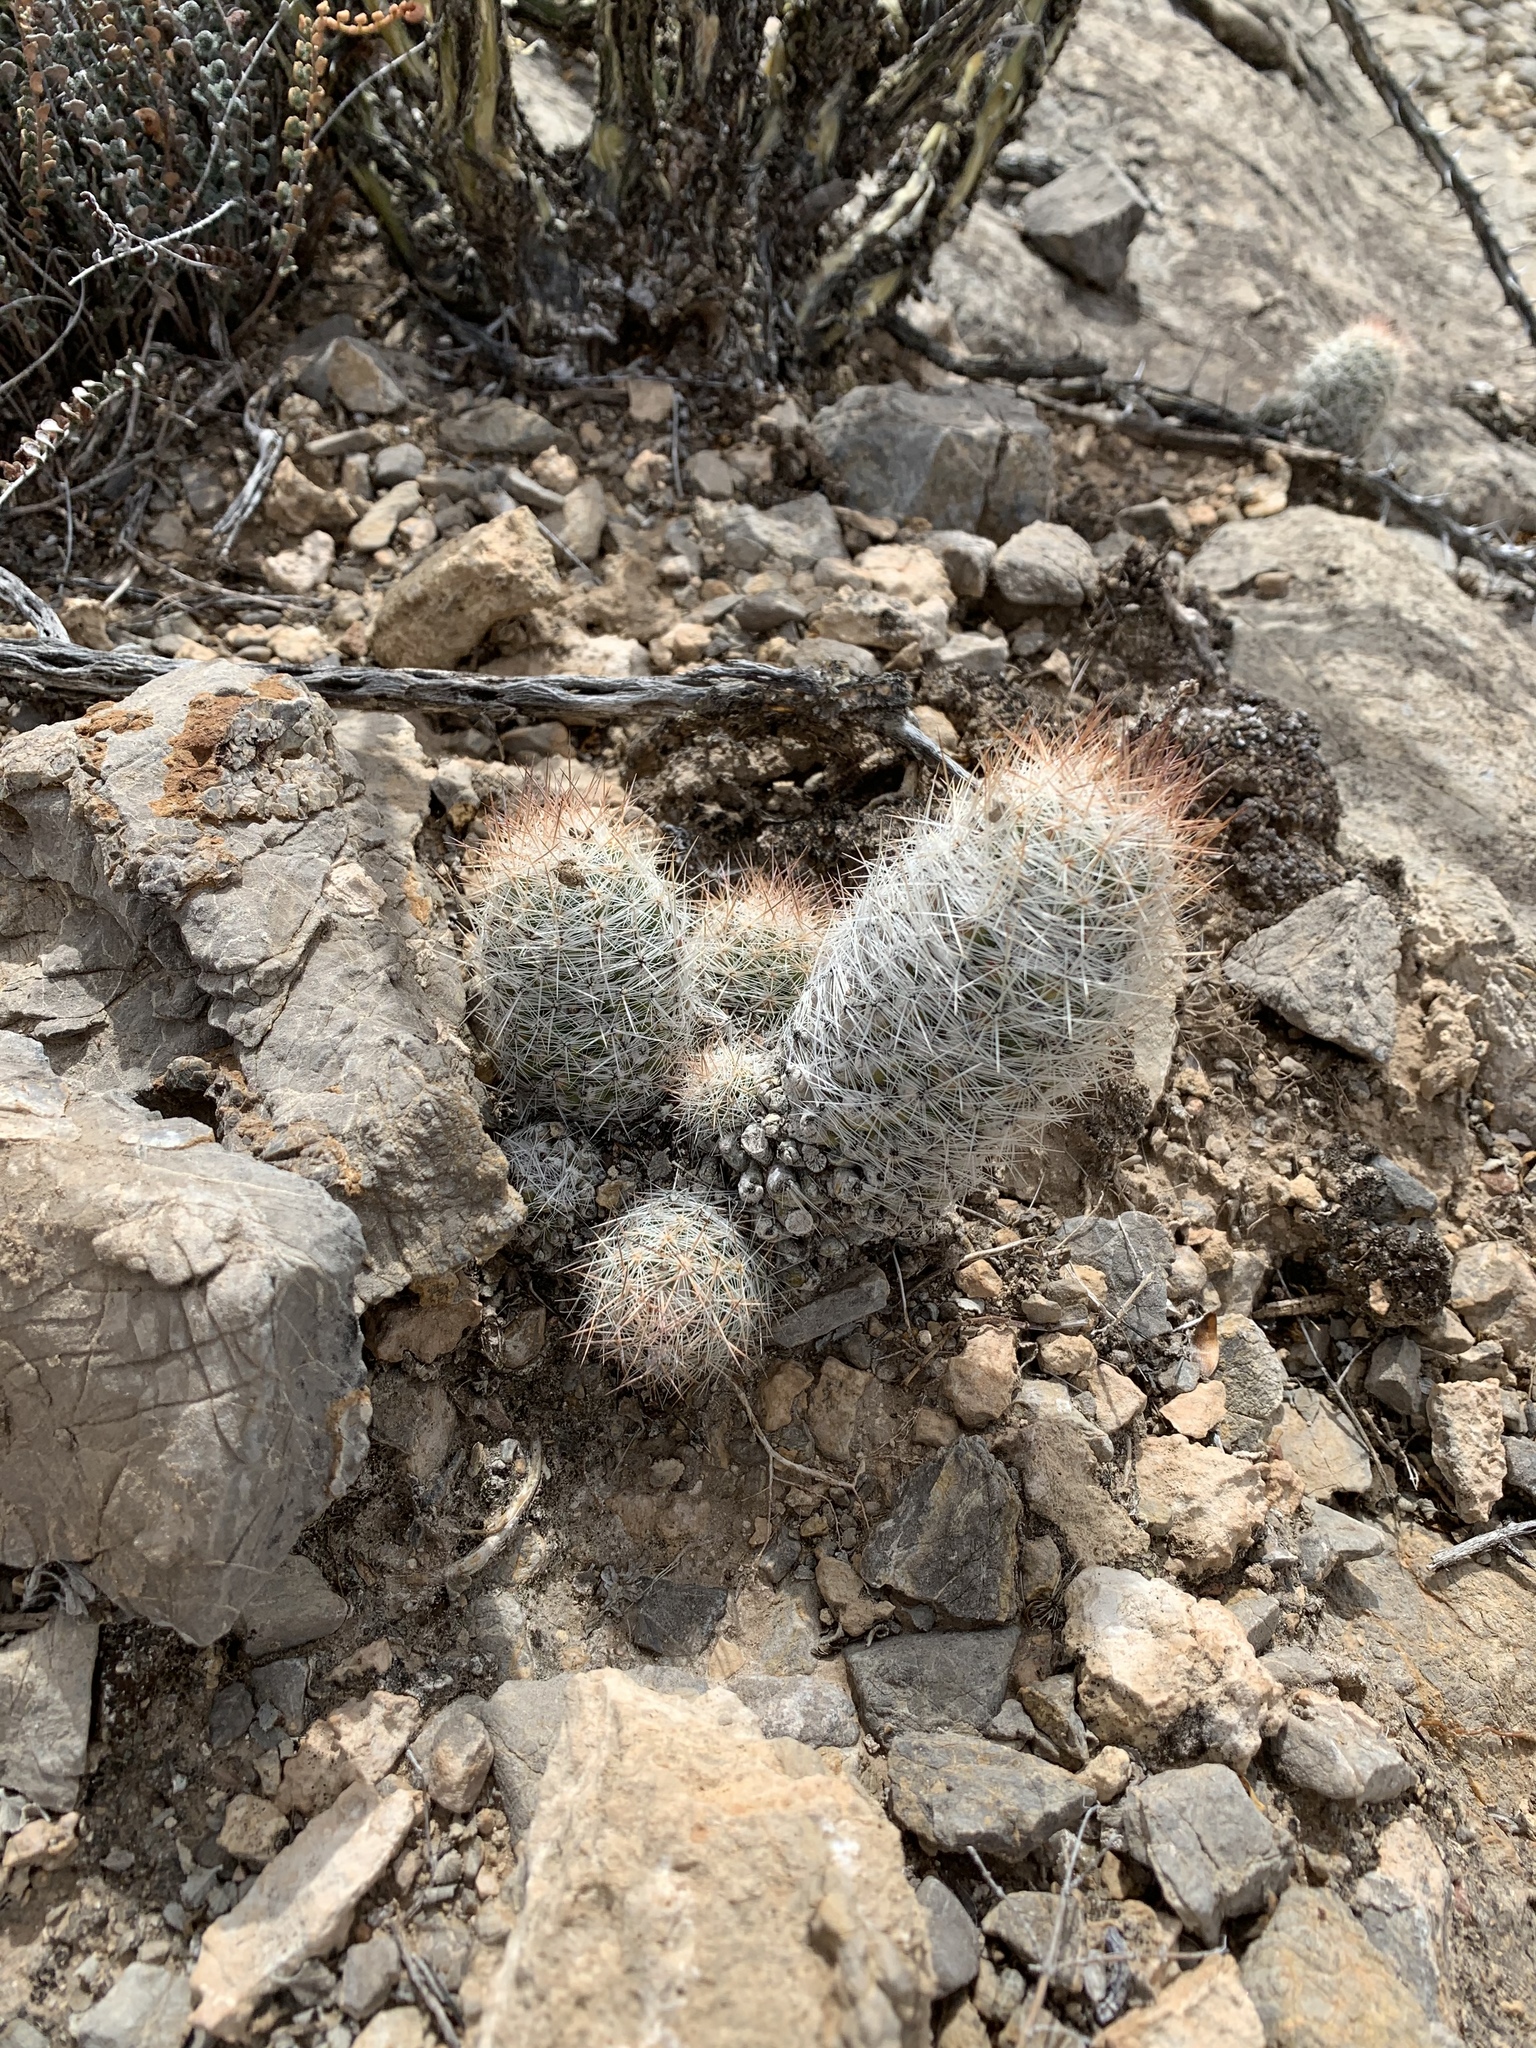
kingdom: Plantae
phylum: Tracheophyta
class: Magnoliopsida
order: Caryophyllales
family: Cactaceae
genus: Pelecyphora
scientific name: Pelecyphora tuberculosa
